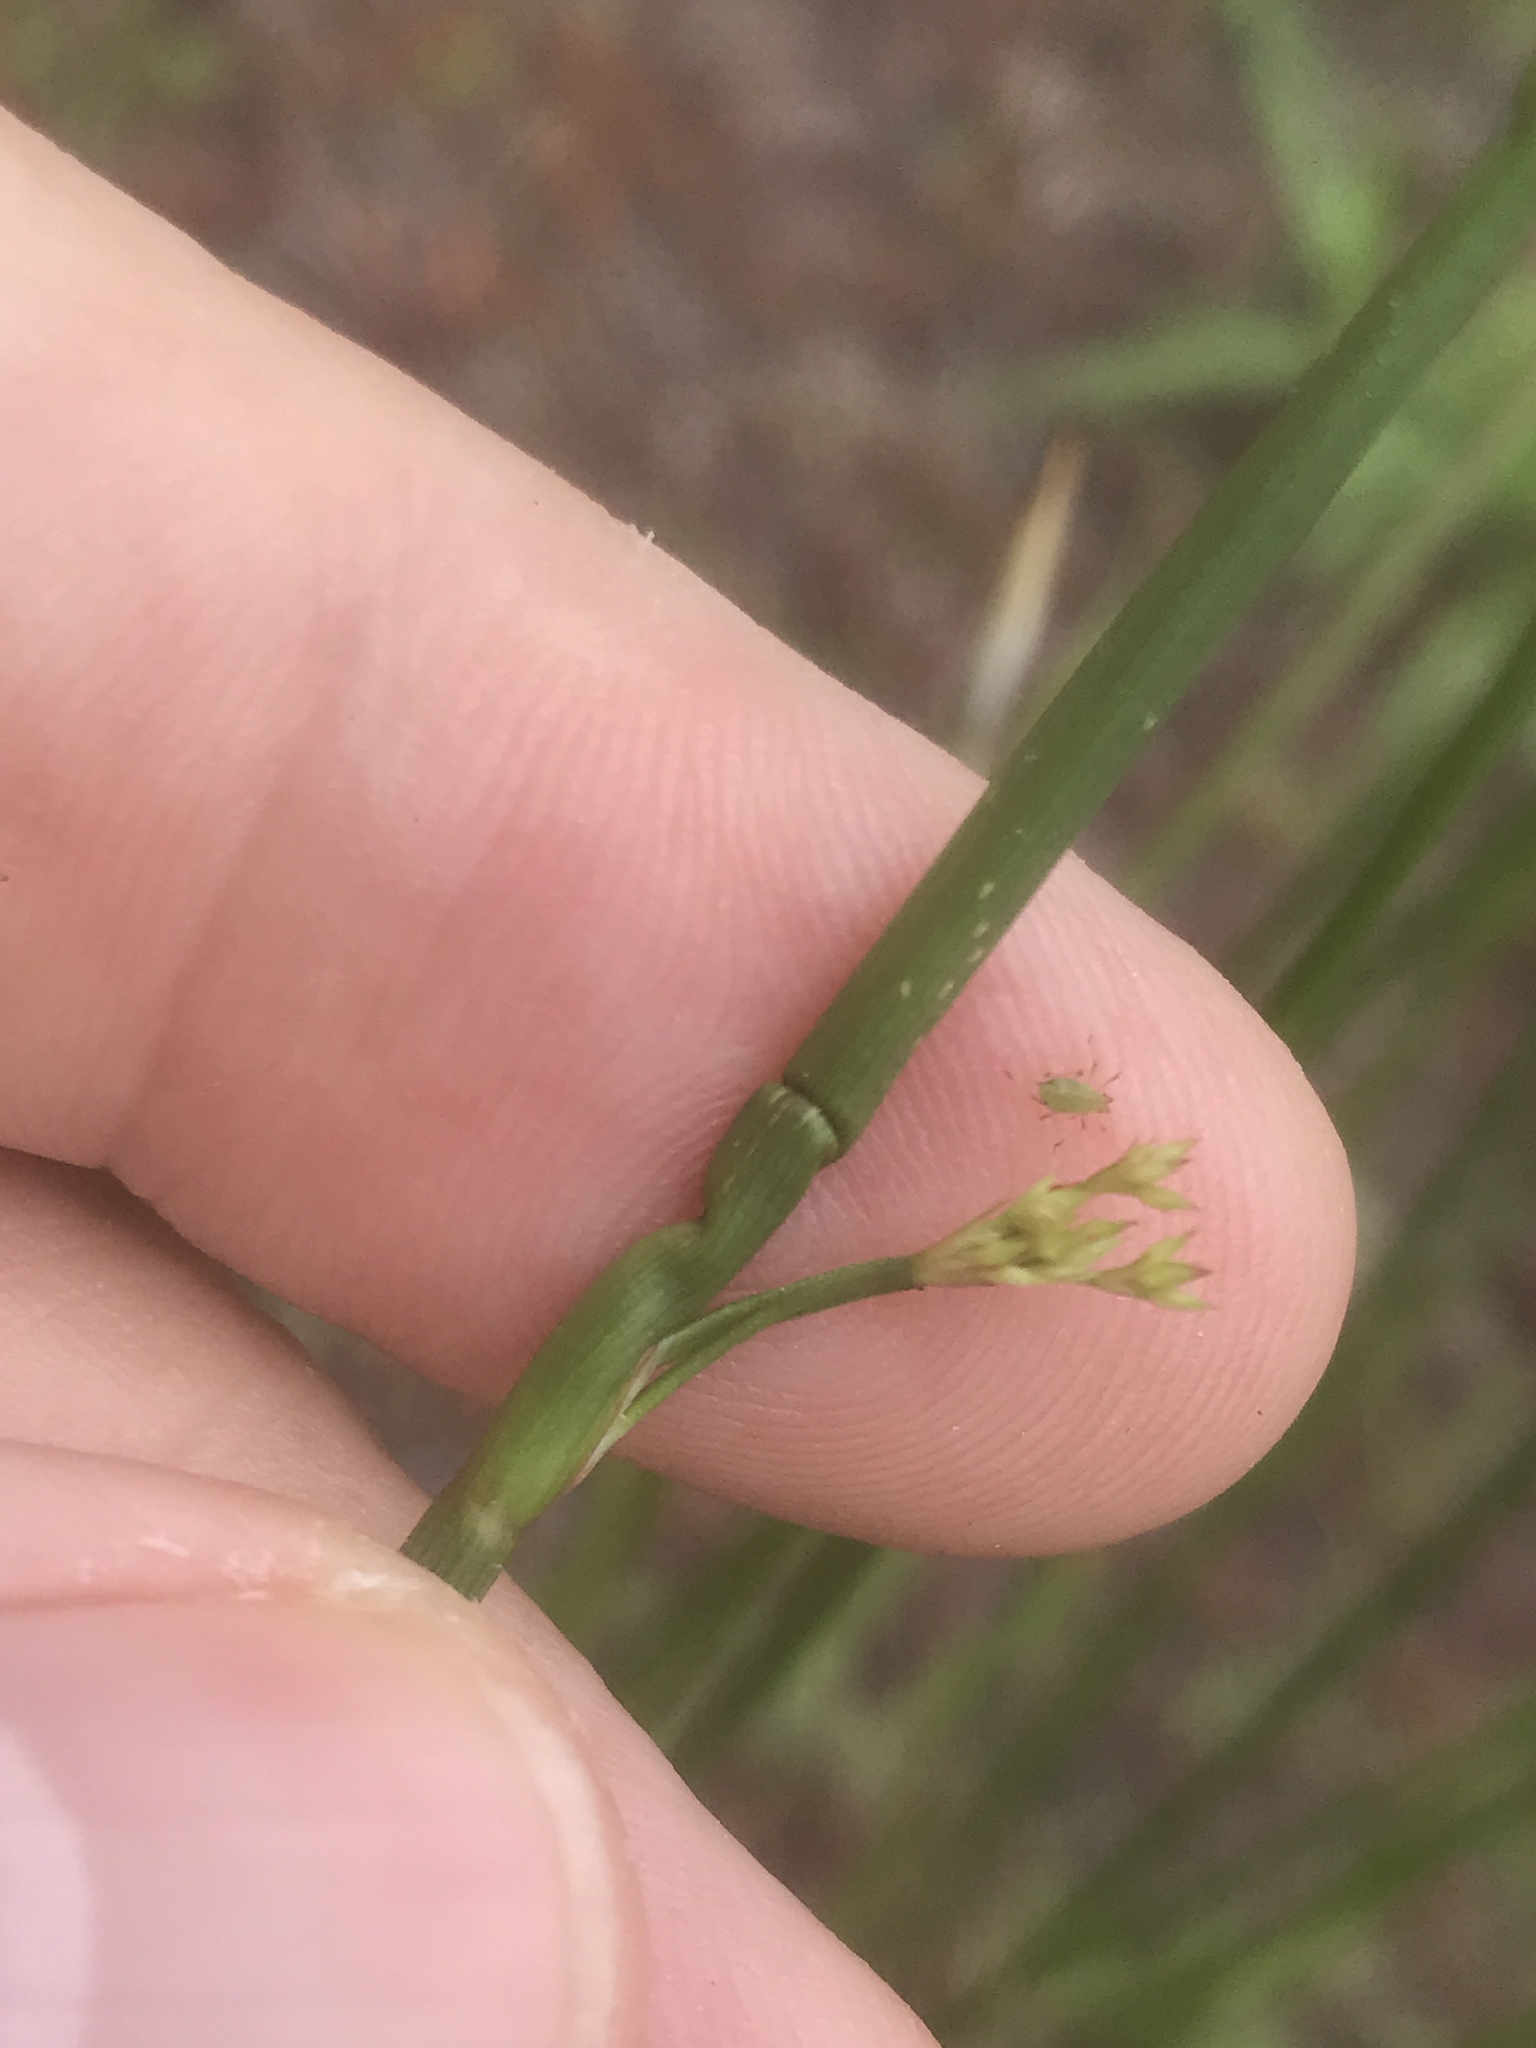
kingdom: Plantae
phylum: Tracheophyta
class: Liliopsida
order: Poales
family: Juncaceae
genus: Juncus
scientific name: Juncus effusus
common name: Soft rush
